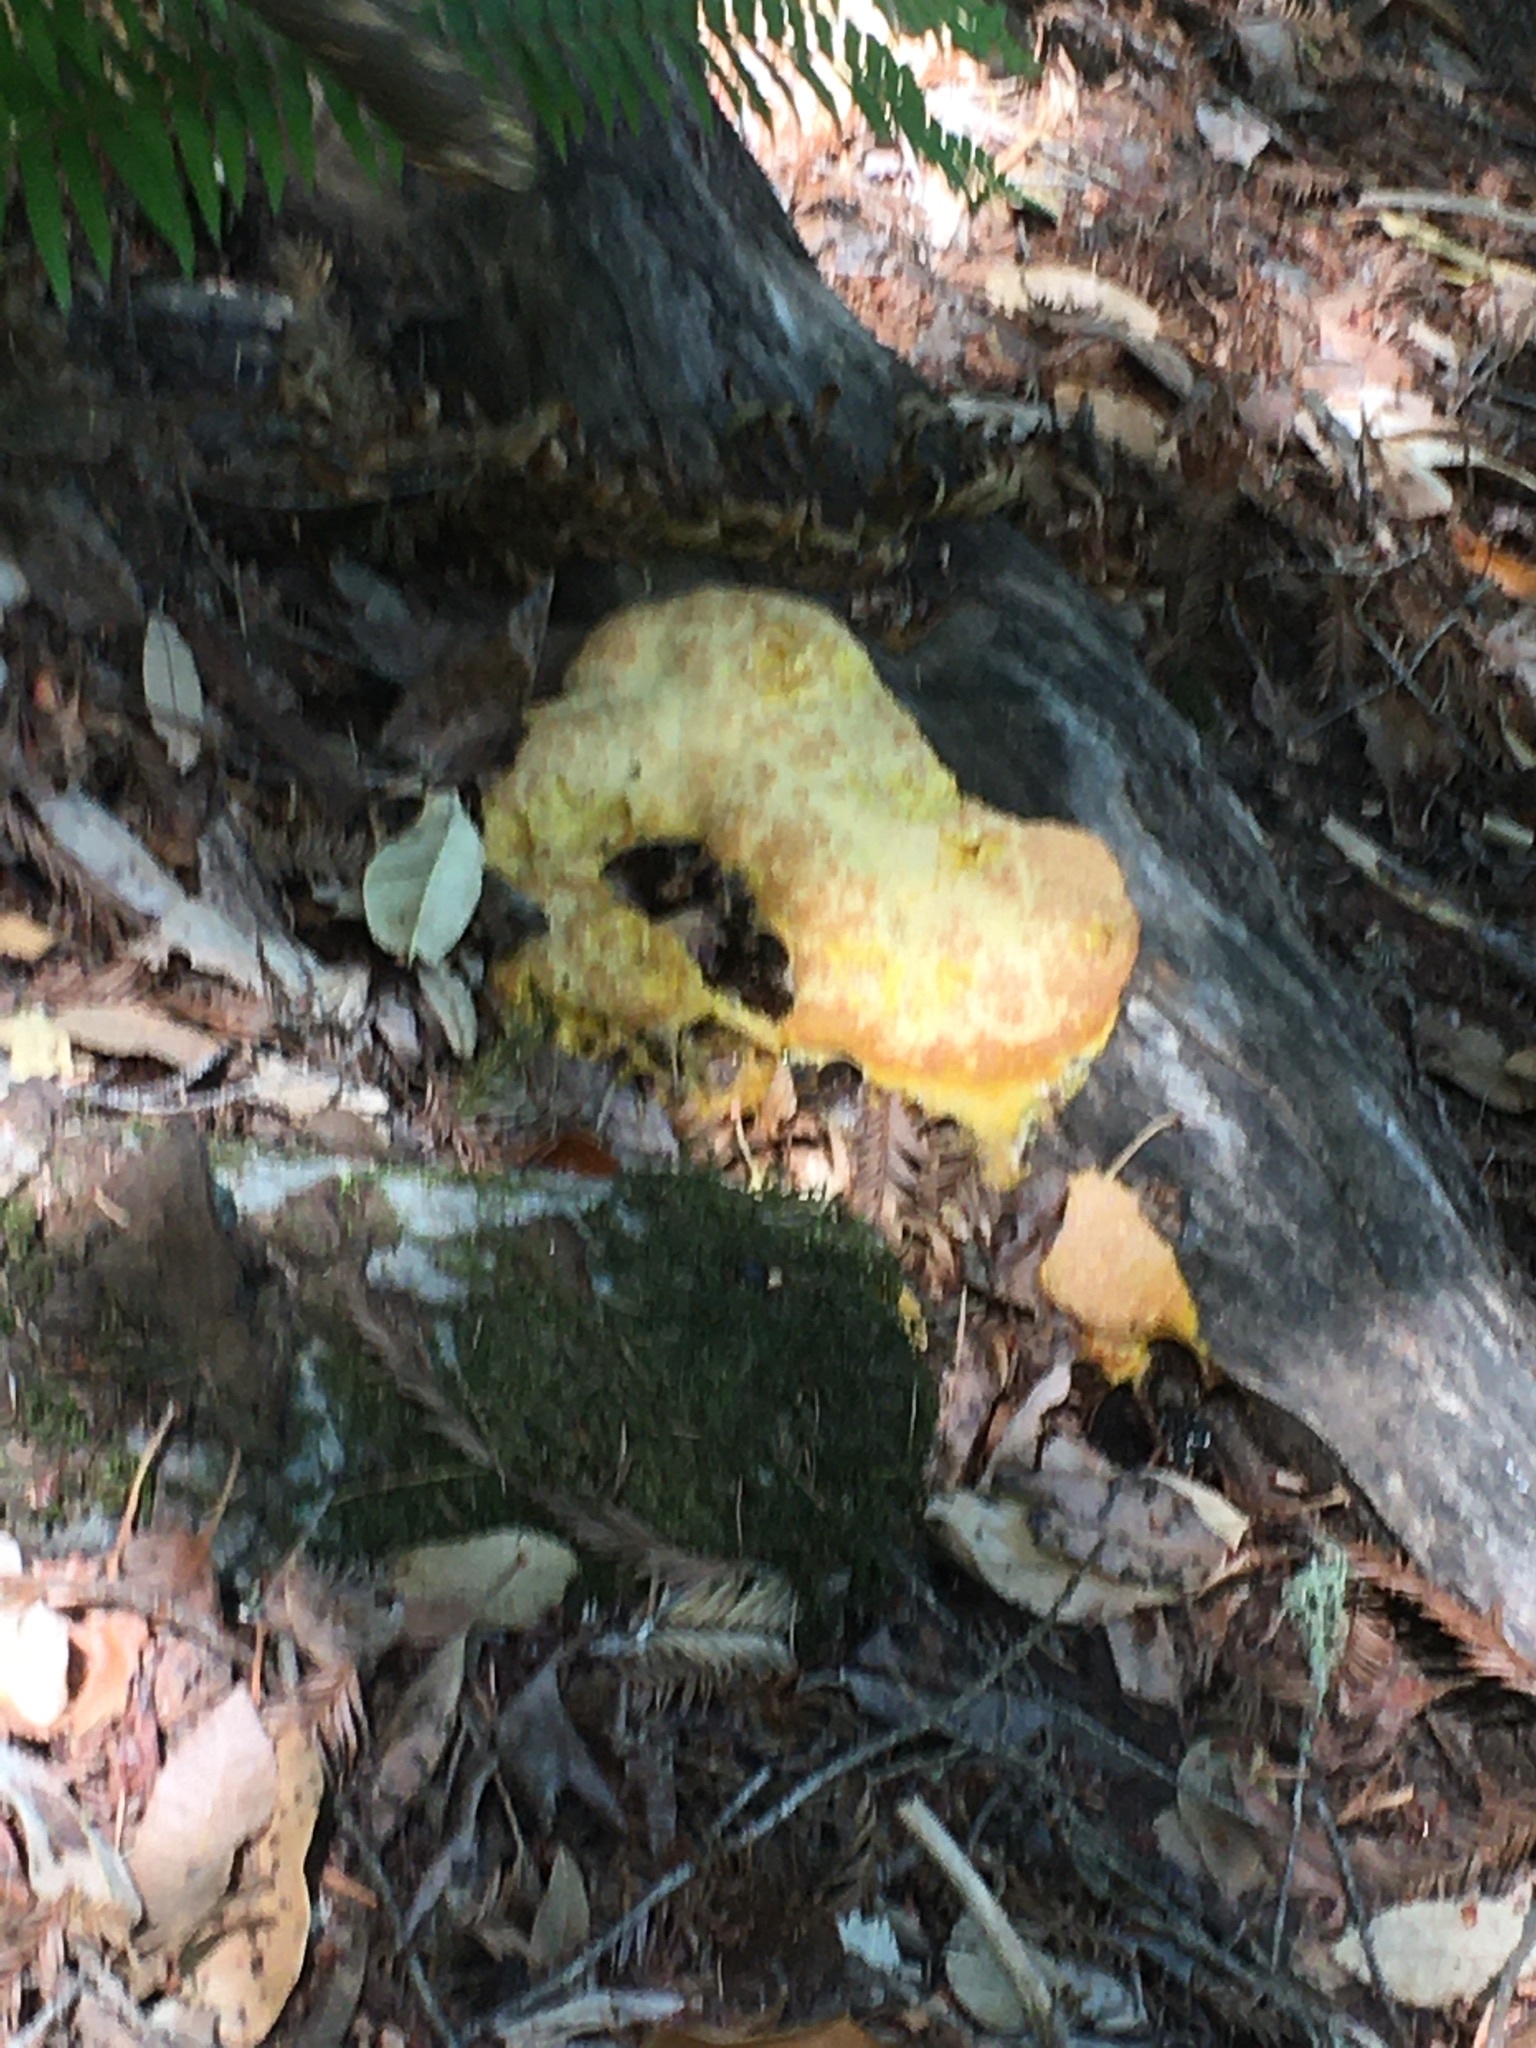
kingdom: Protozoa
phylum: Mycetozoa
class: Myxomycetes
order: Physarales
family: Physaraceae
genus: Fuligo
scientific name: Fuligo septica
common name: Dog vomit slime mold
